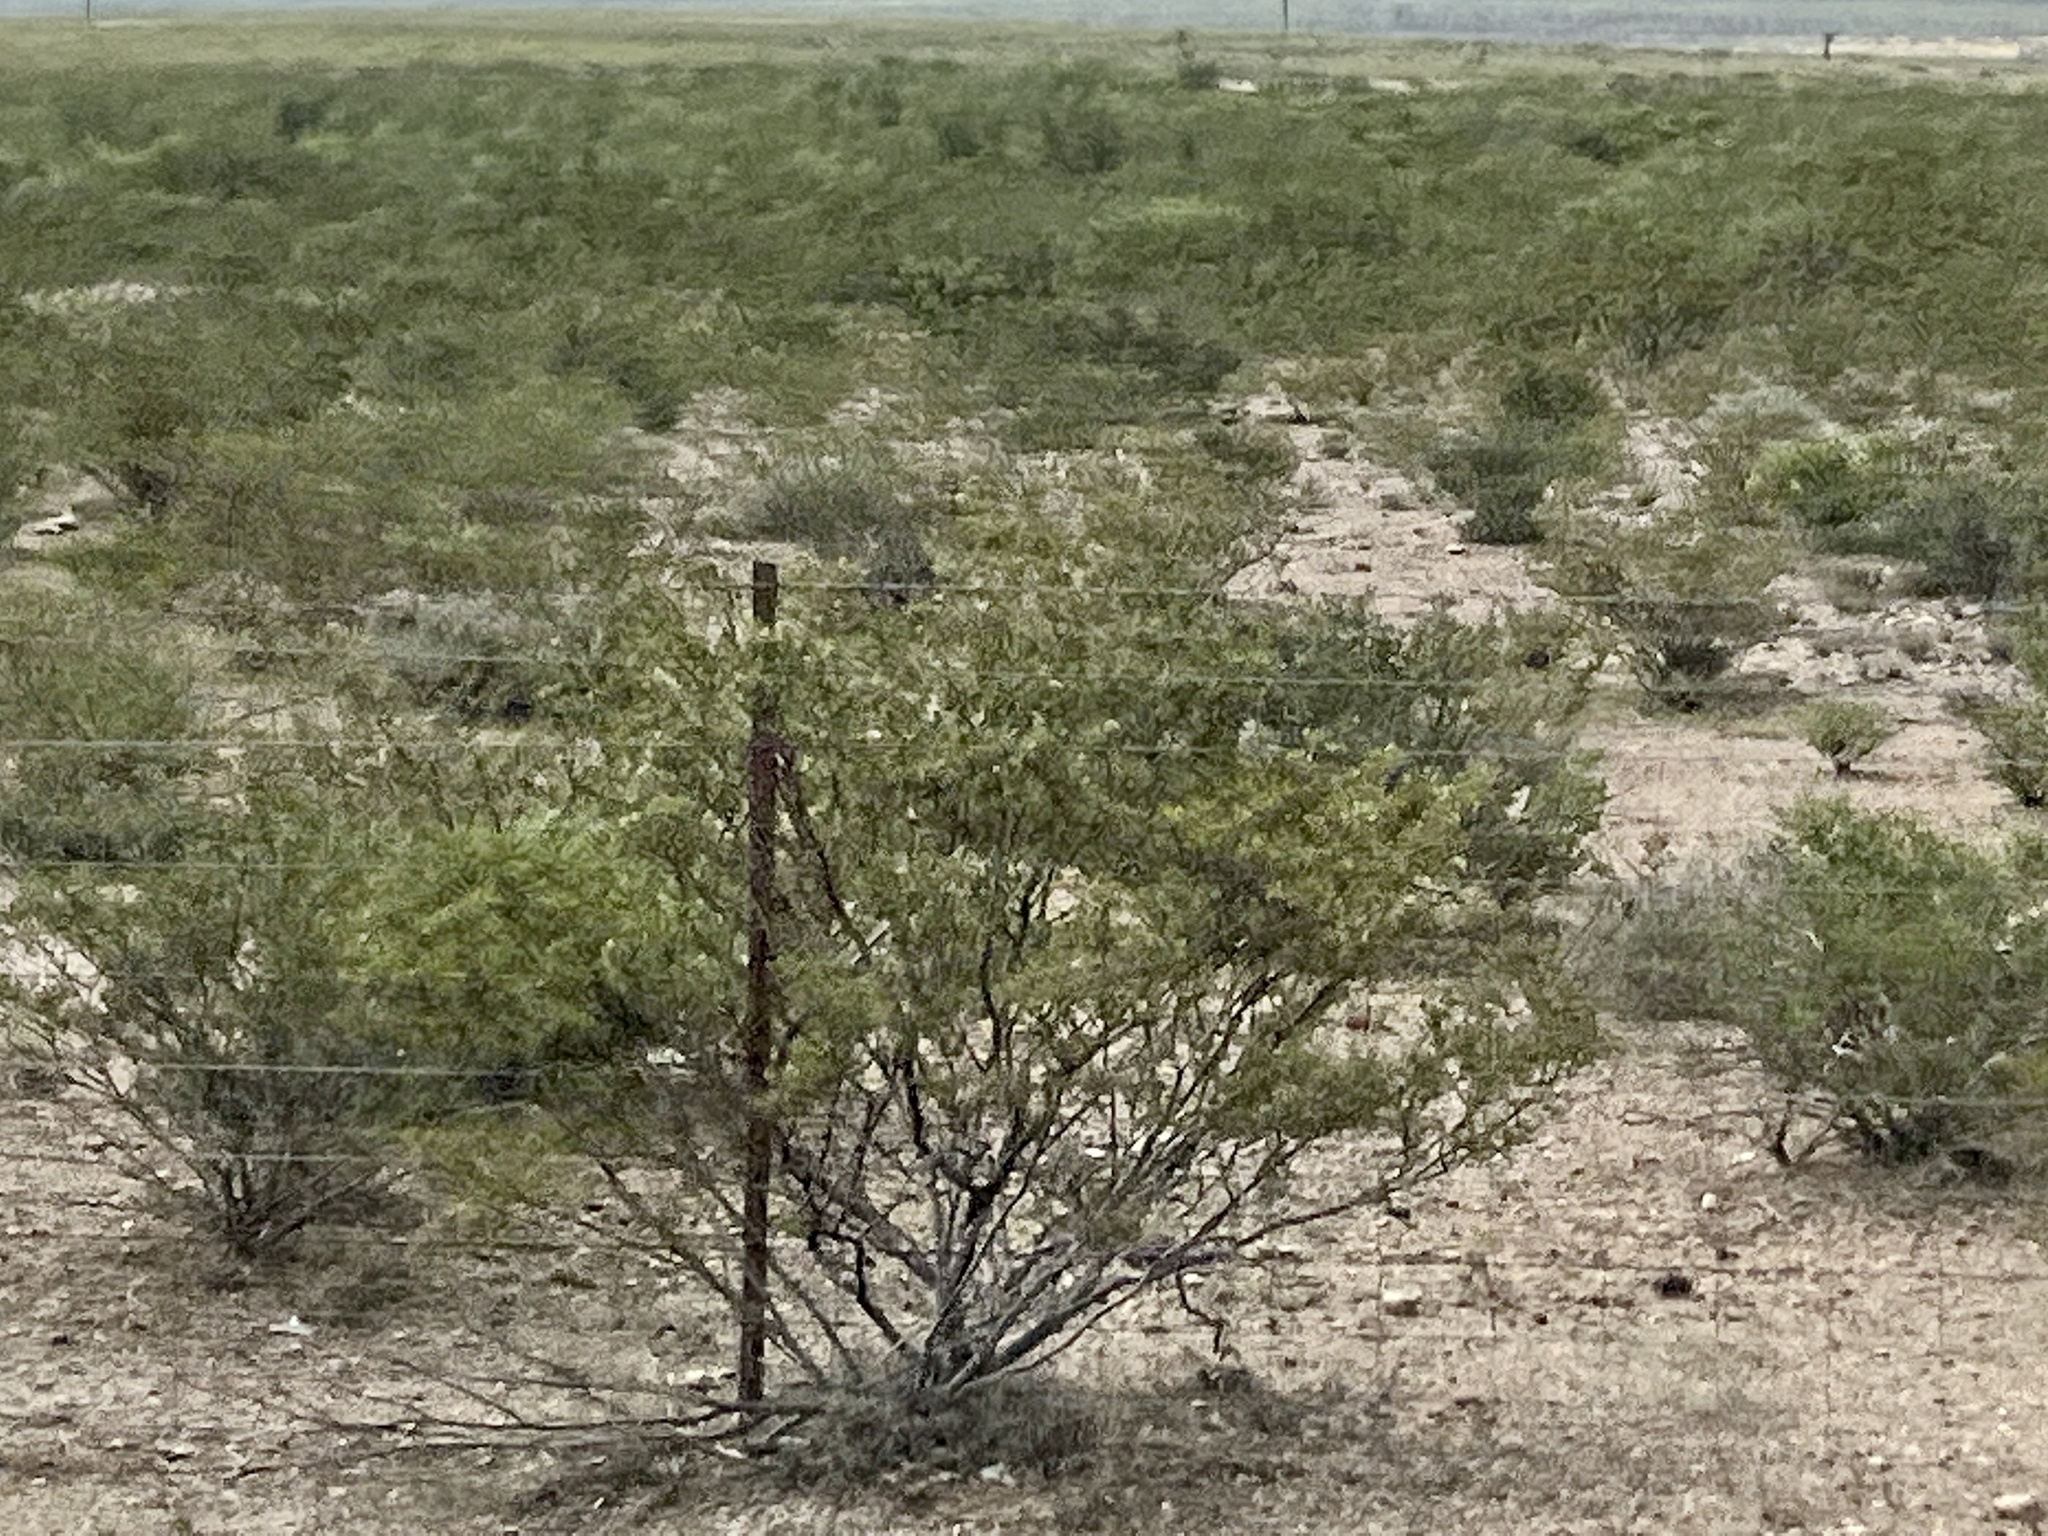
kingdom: Plantae
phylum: Tracheophyta
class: Magnoliopsida
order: Zygophyllales
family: Zygophyllaceae
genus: Larrea
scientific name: Larrea tridentata
